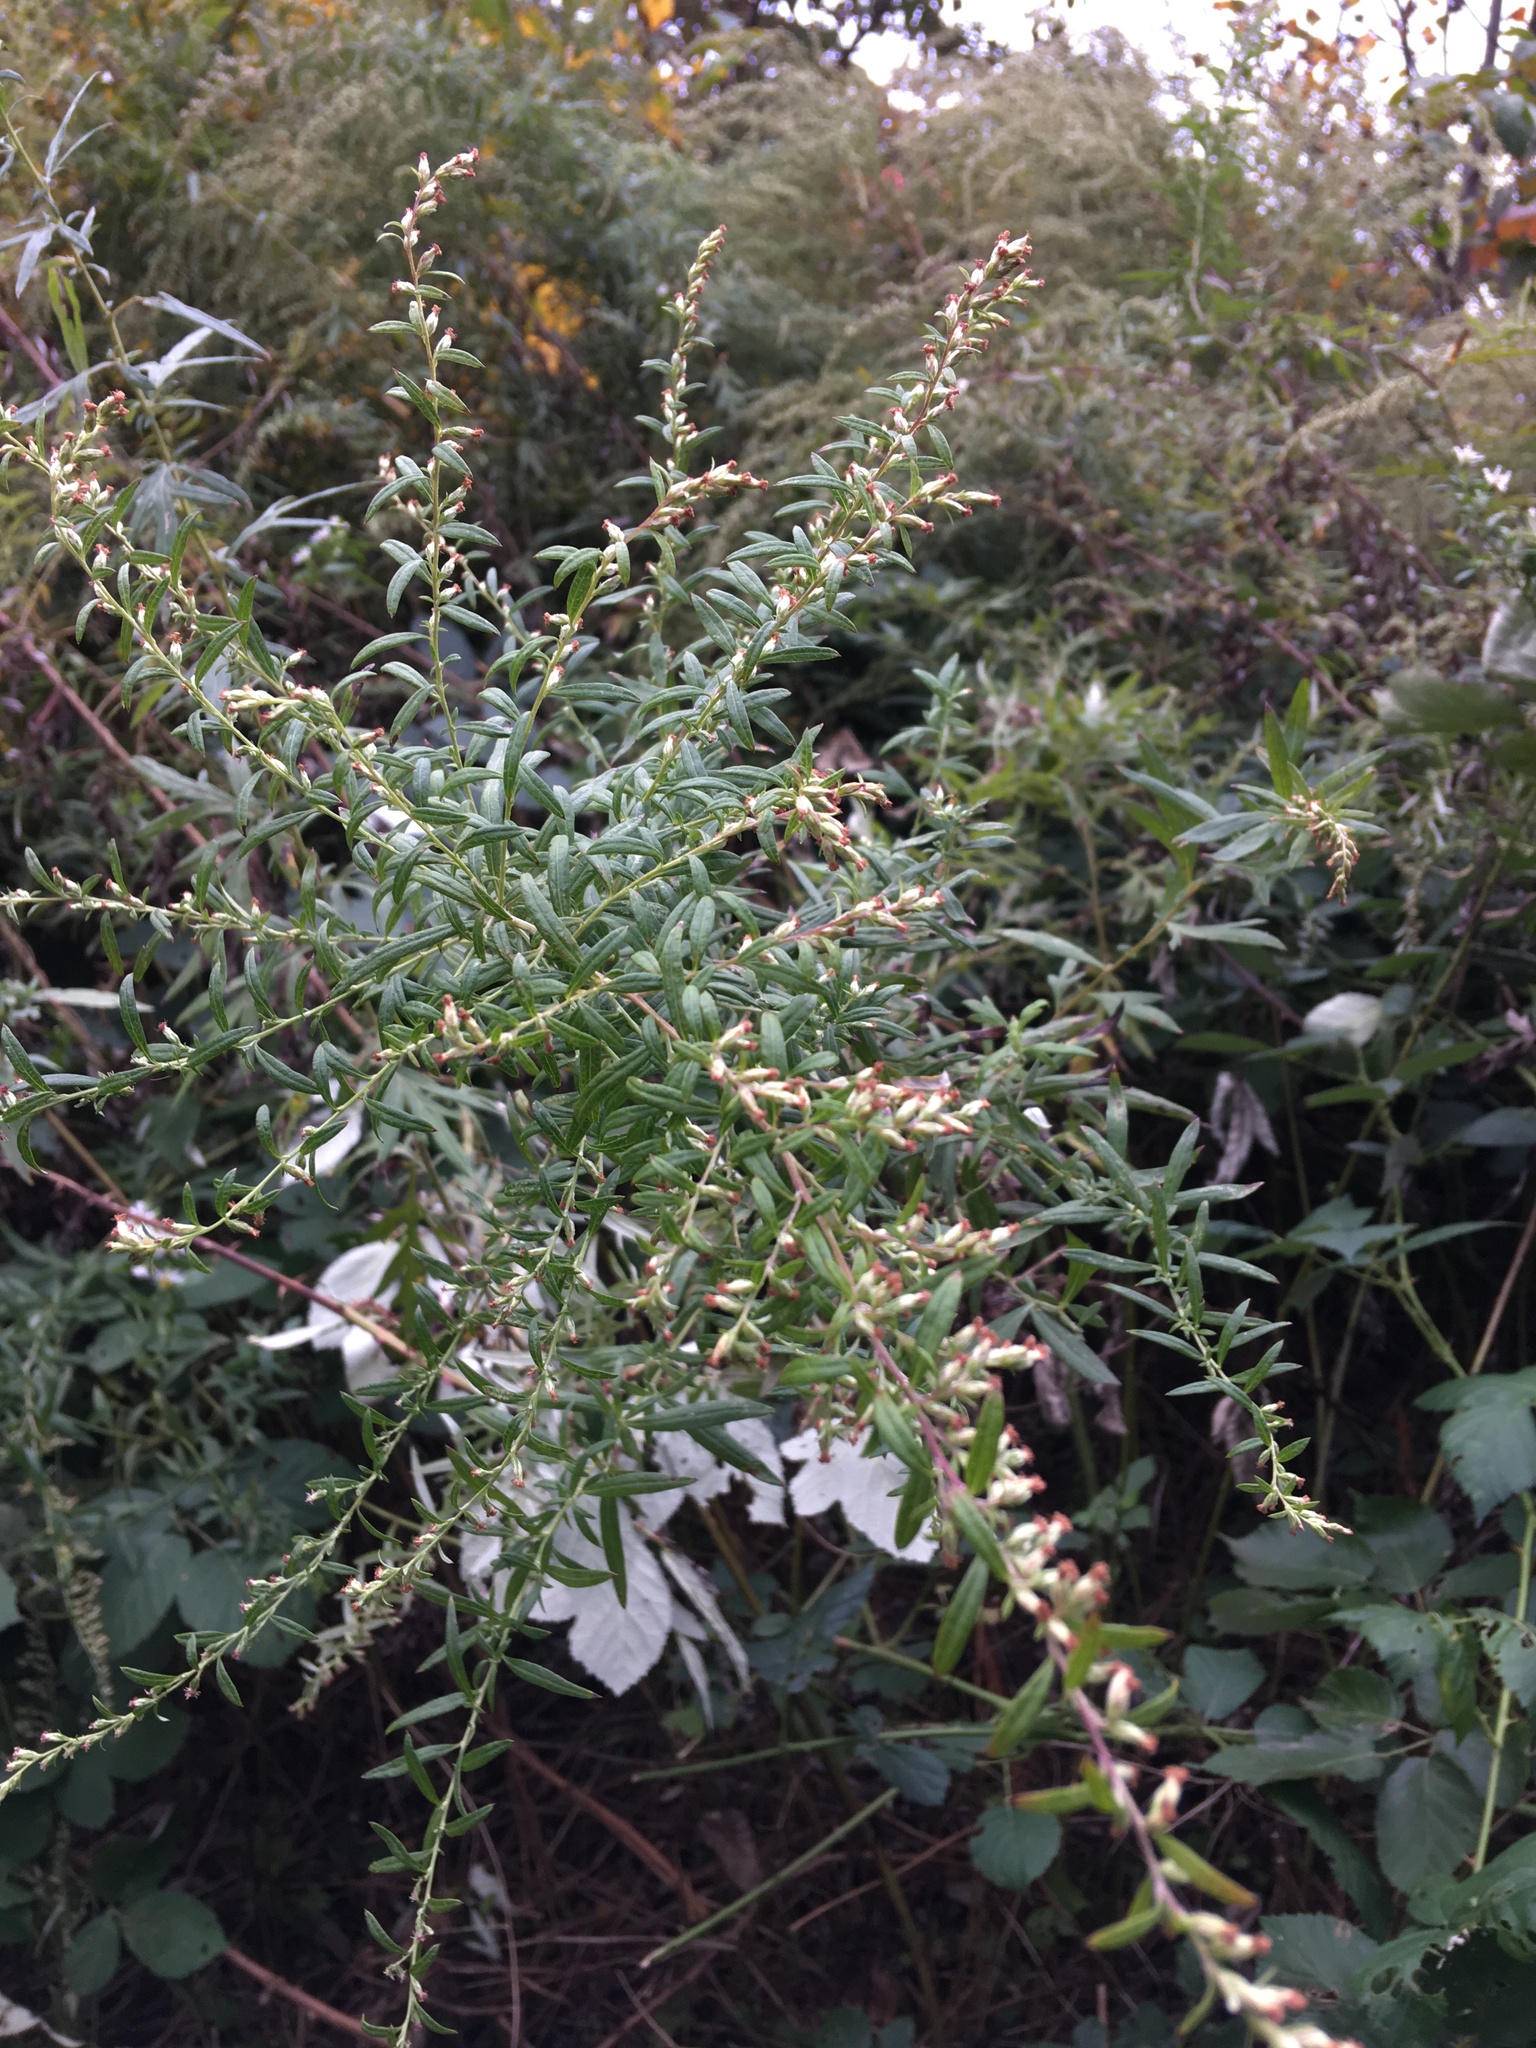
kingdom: Plantae
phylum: Tracheophyta
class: Magnoliopsida
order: Asterales
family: Asteraceae
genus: Artemisia
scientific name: Artemisia vulgaris
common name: Mugwort
